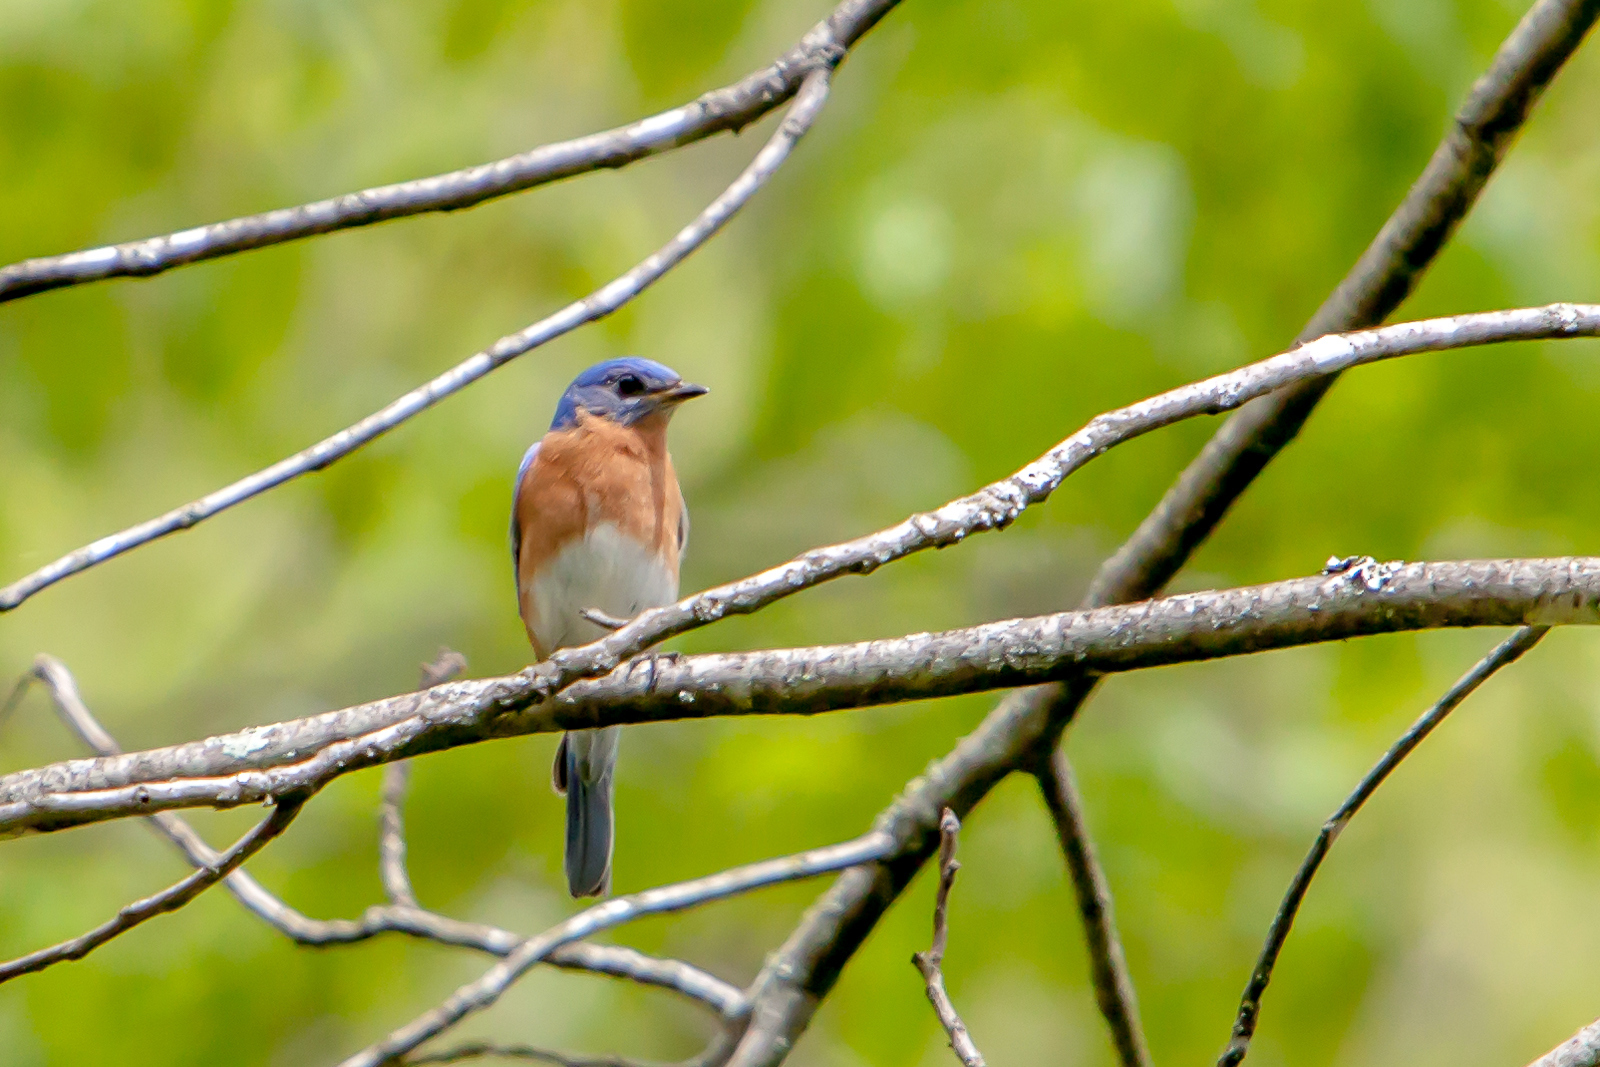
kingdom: Animalia
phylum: Chordata
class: Aves
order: Passeriformes
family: Turdidae
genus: Sialia
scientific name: Sialia sialis
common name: Eastern bluebird
